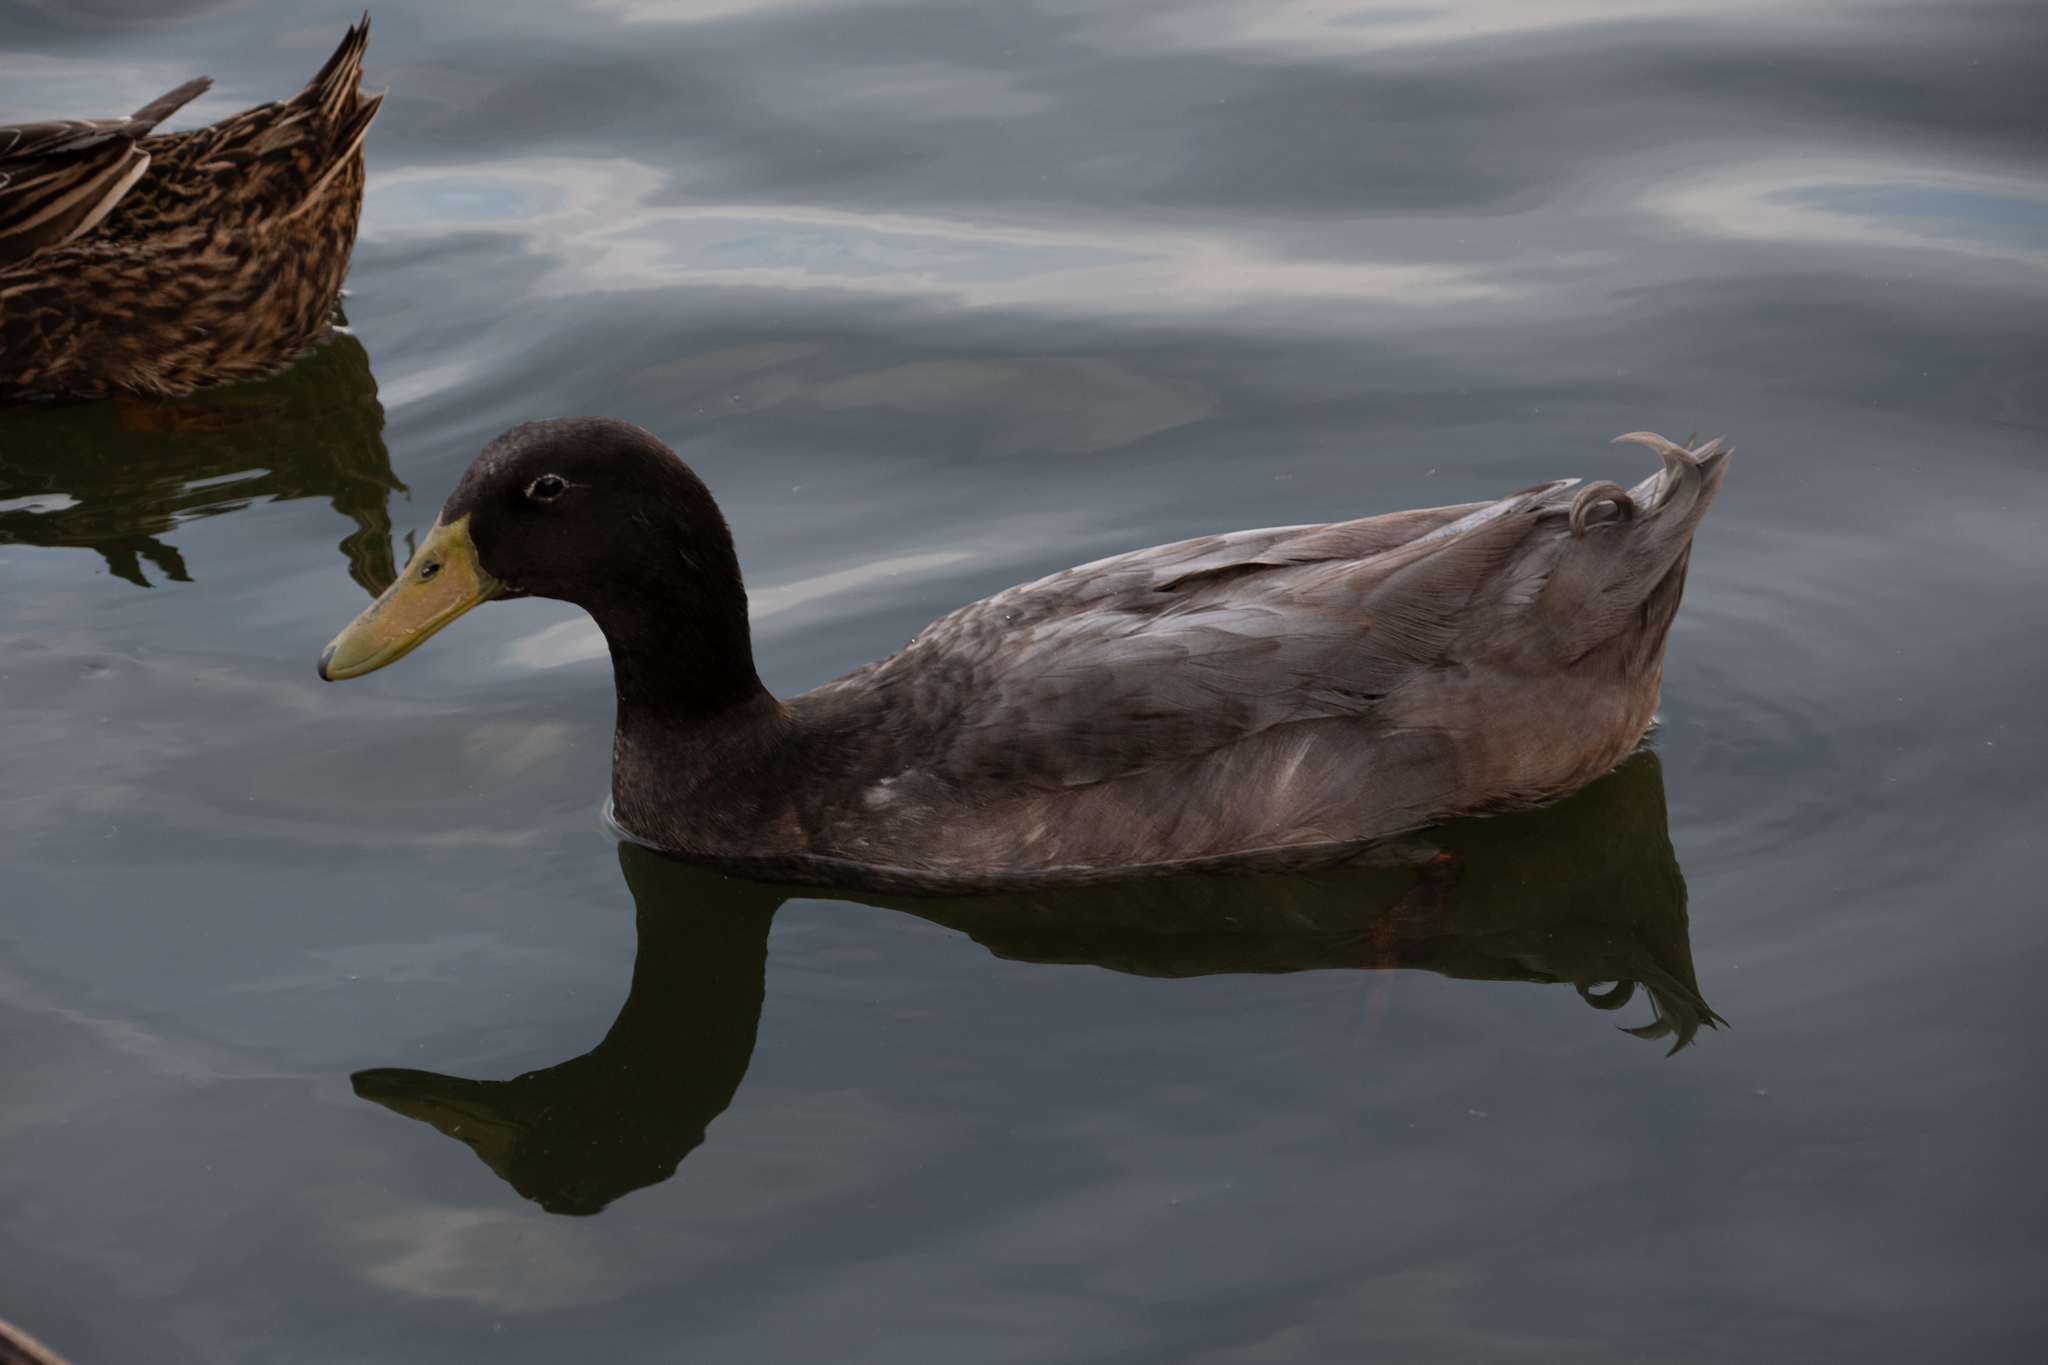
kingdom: Animalia
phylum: Chordata
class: Aves
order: Anseriformes
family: Anatidae
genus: Anas
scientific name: Anas platyrhynchos
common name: Mallard
